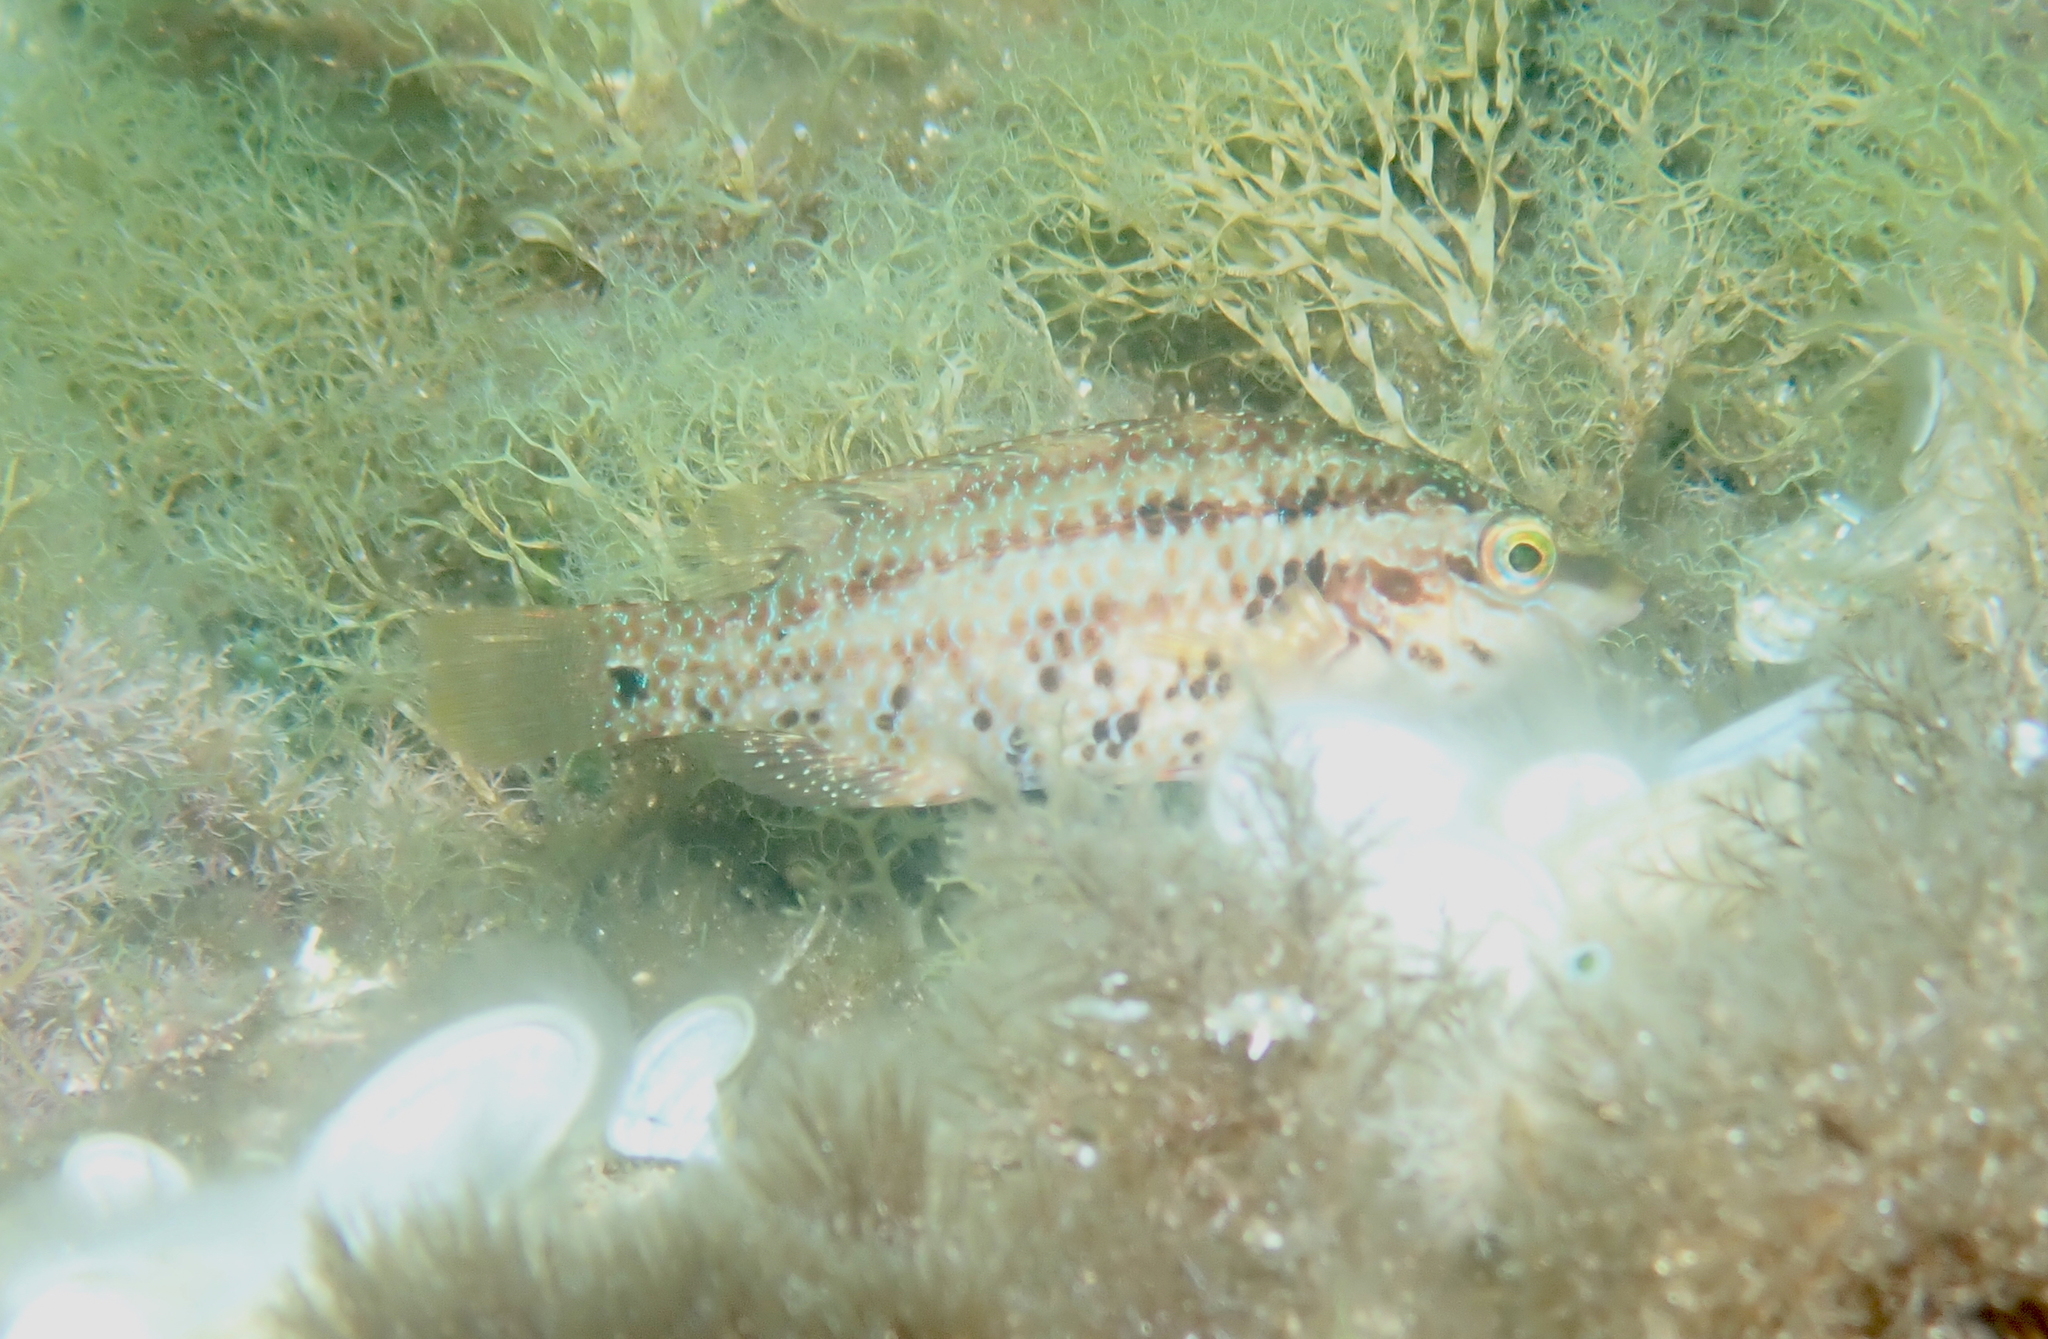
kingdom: Animalia
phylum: Chordata
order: Perciformes
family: Labridae
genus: Symphodus
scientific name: Symphodus roissali
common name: Five-spotted wrasse
